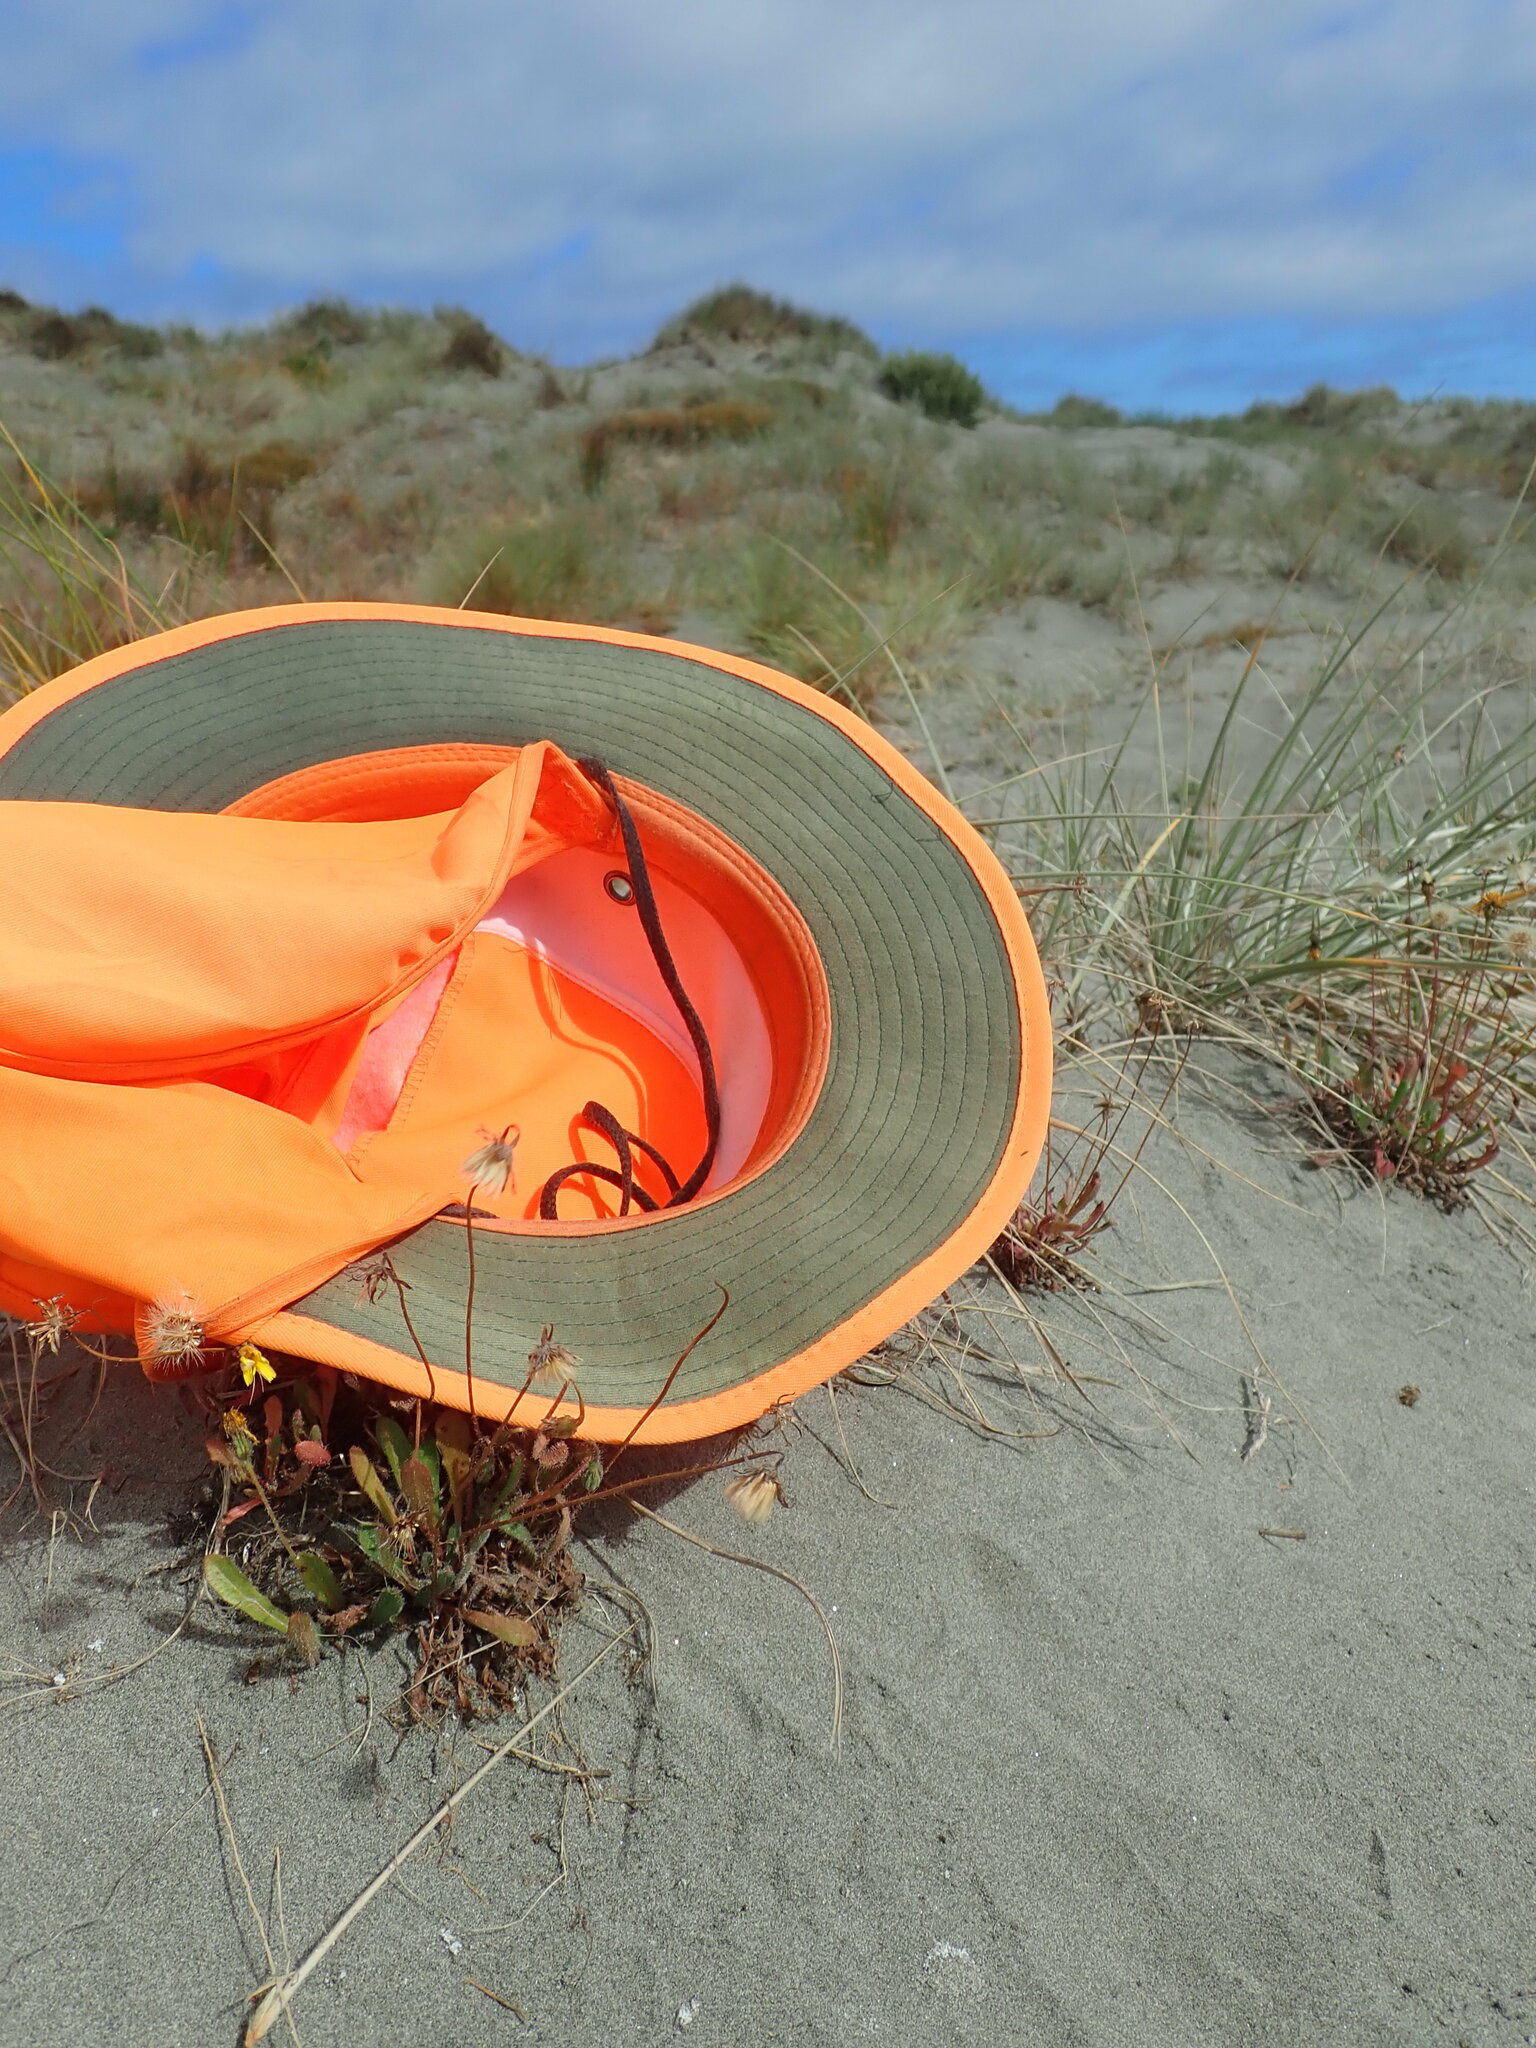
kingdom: Animalia
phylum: Arthropoda
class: Arachnida
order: Araneae
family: Theridiidae
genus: Latrodectus
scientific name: Latrodectus katipo
